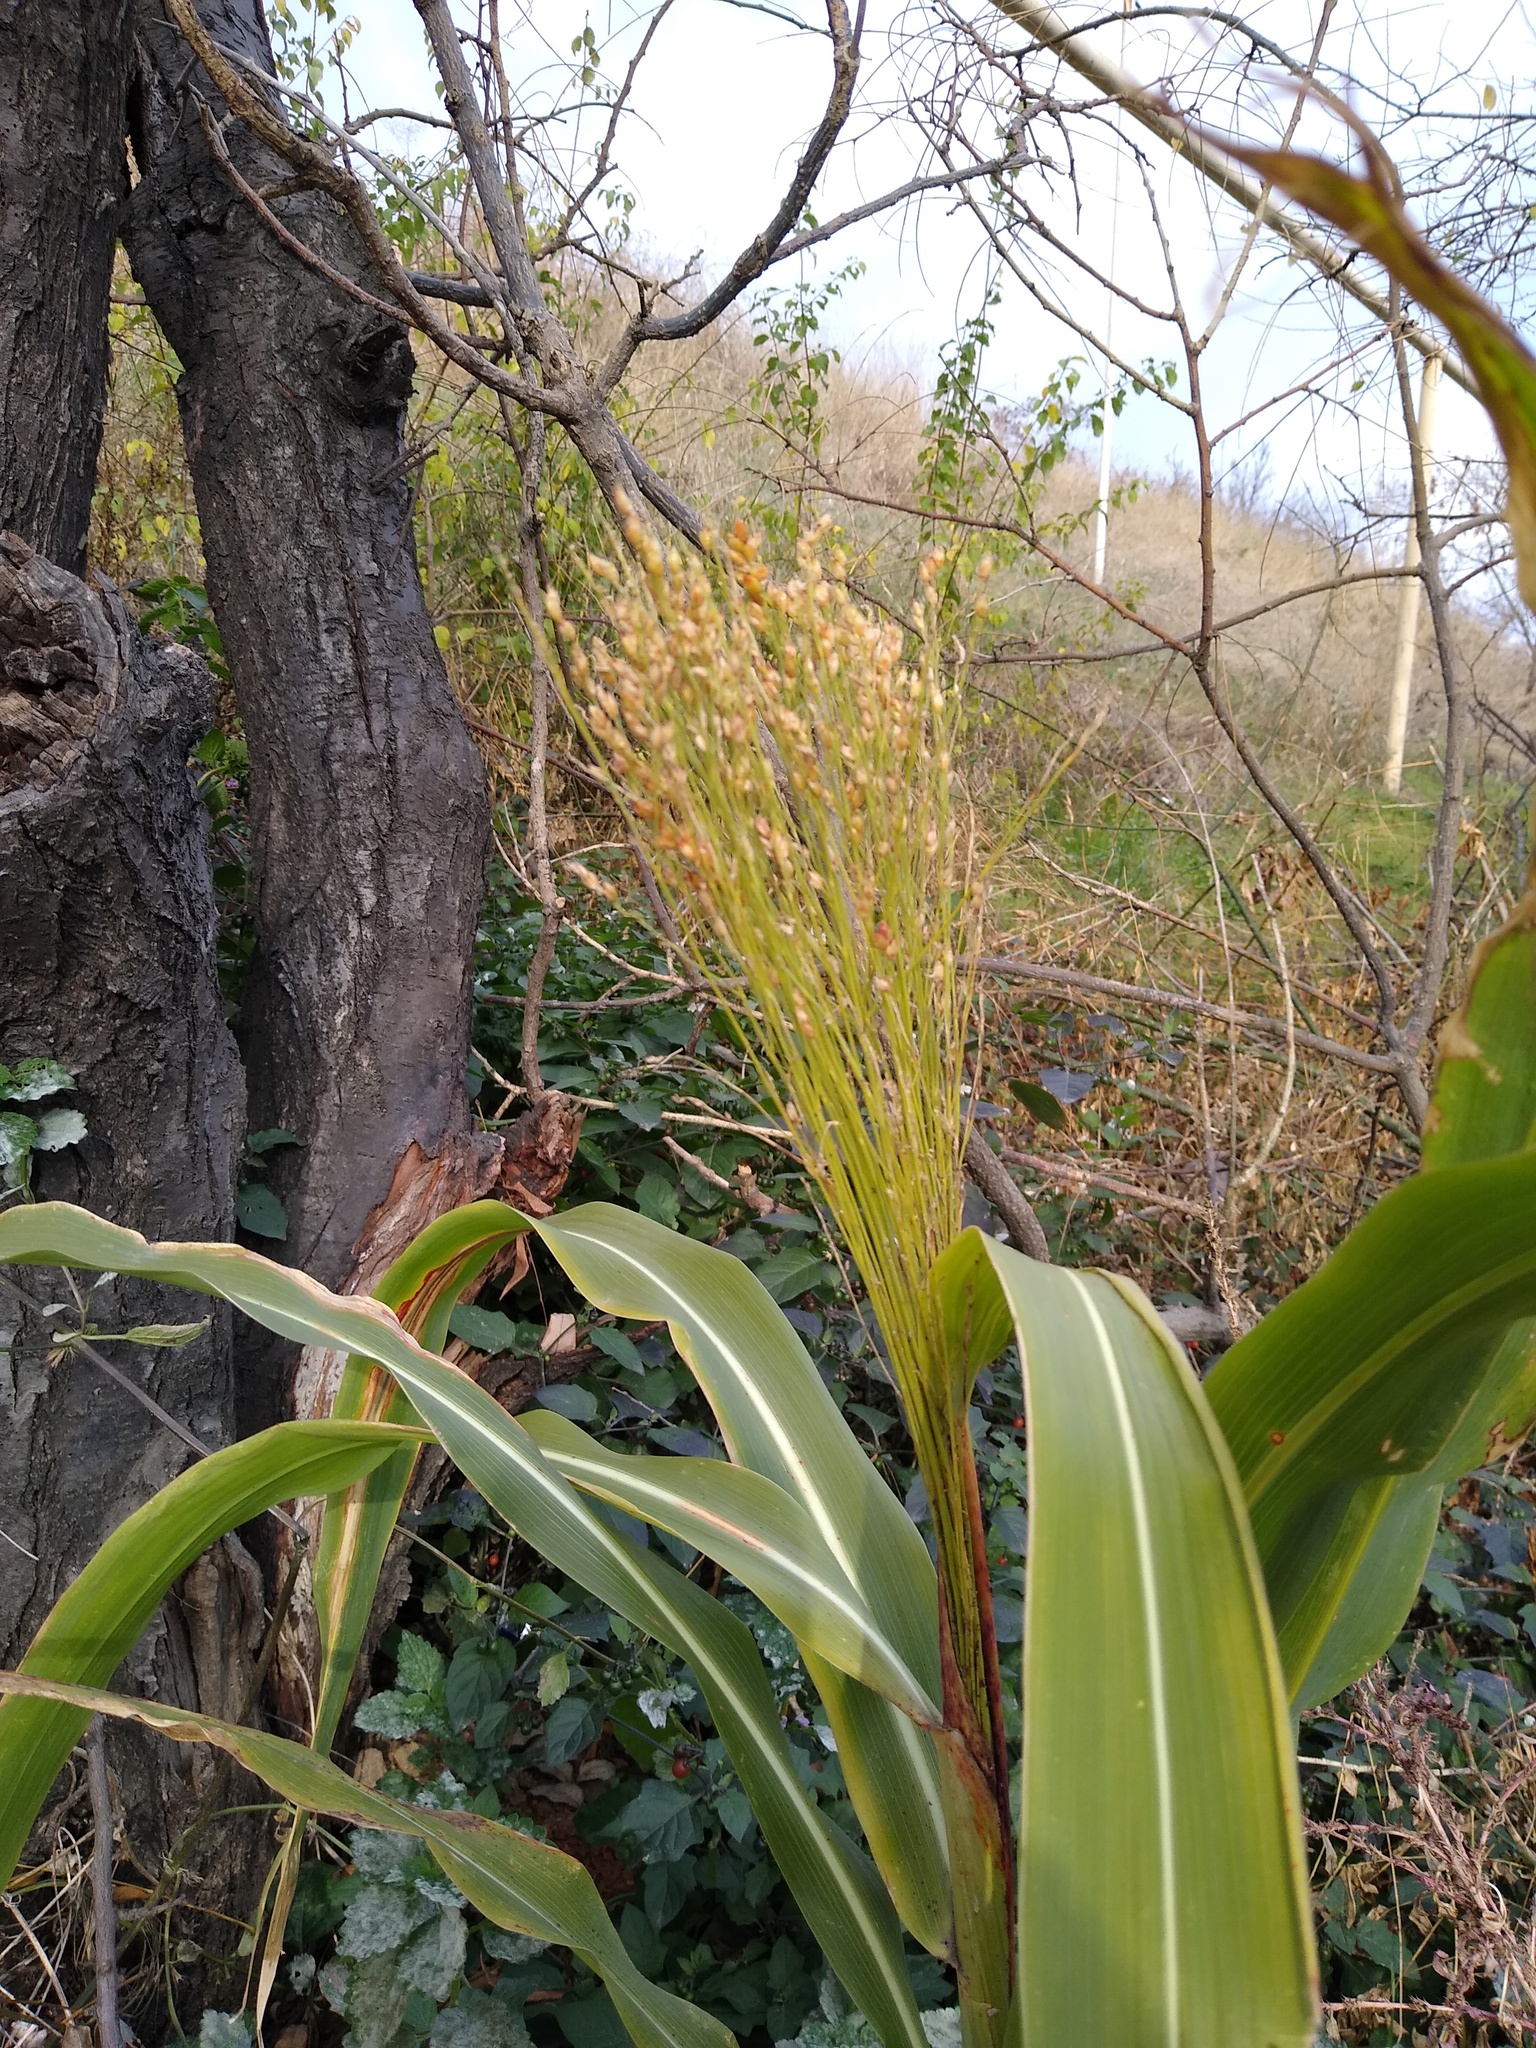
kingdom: Plantae
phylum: Tracheophyta
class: Liliopsida
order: Poales
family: Poaceae
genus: Sorghum
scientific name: Sorghum bicolor
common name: Sorghum
